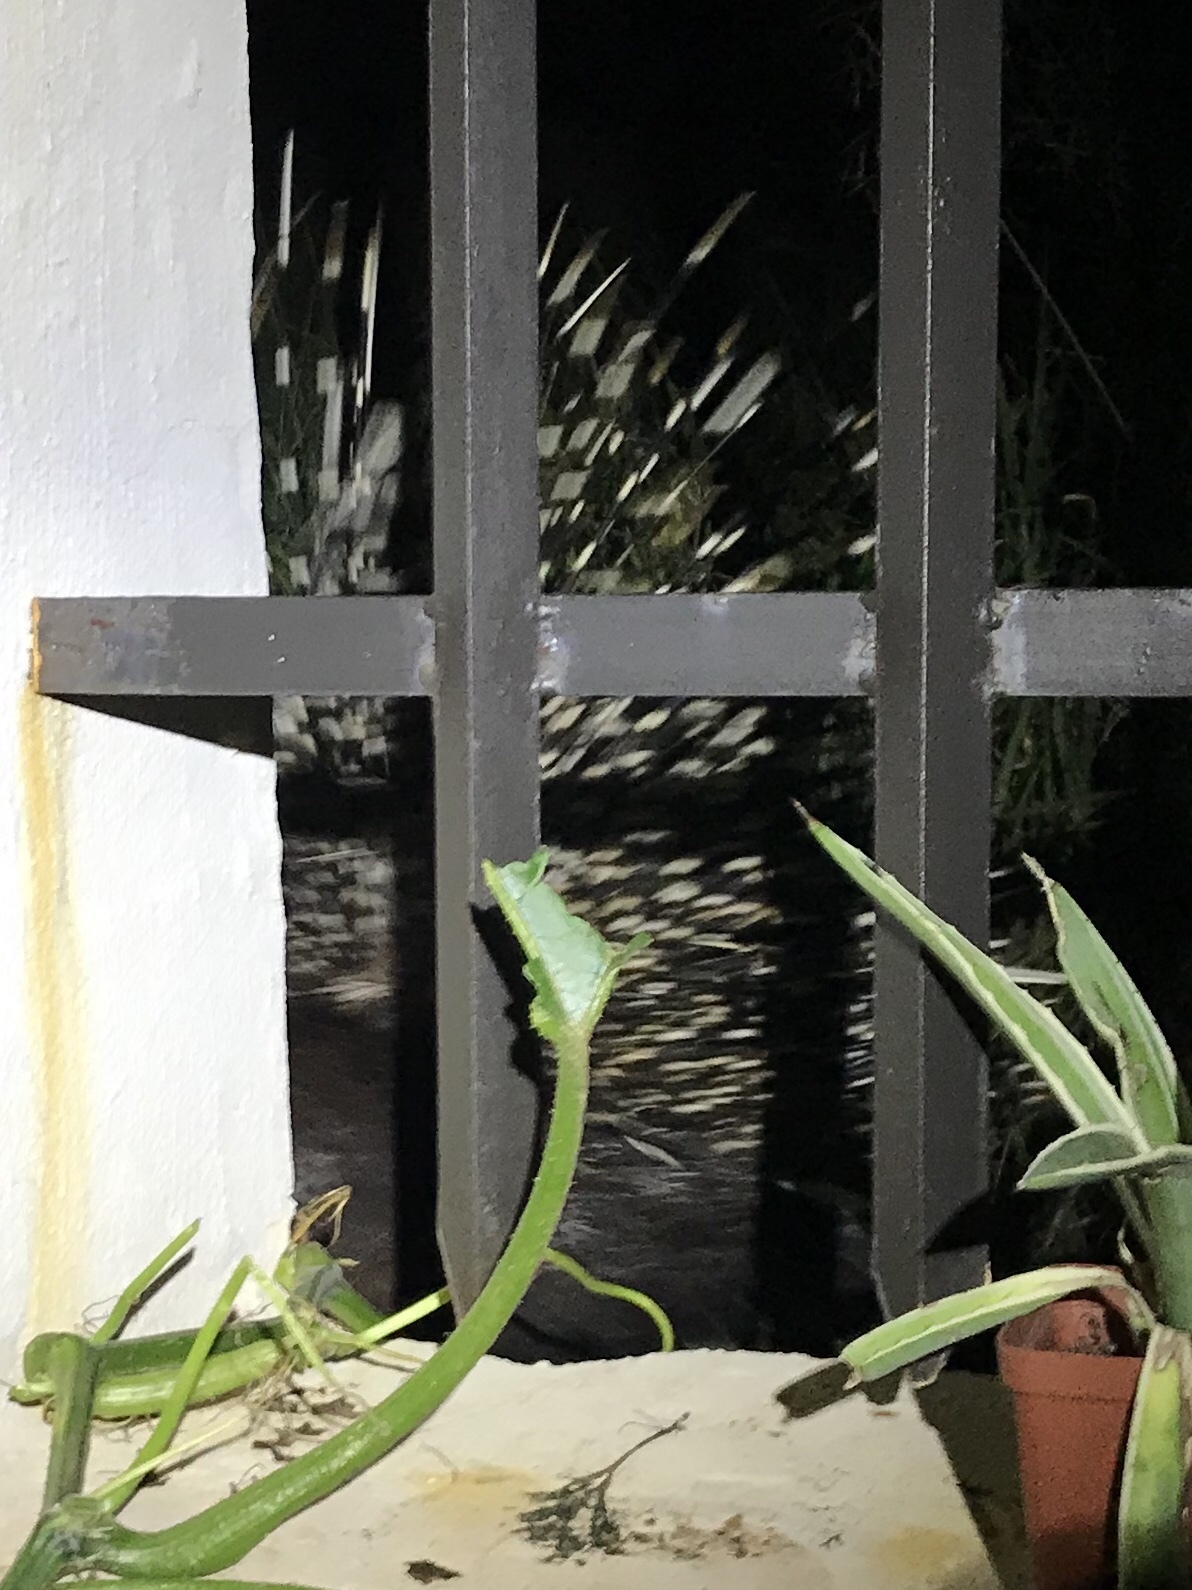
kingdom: Animalia
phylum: Chordata
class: Mammalia
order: Rodentia
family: Hystricidae
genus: Hystrix
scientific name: Hystrix africaeaustralis
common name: Cape porcupine
